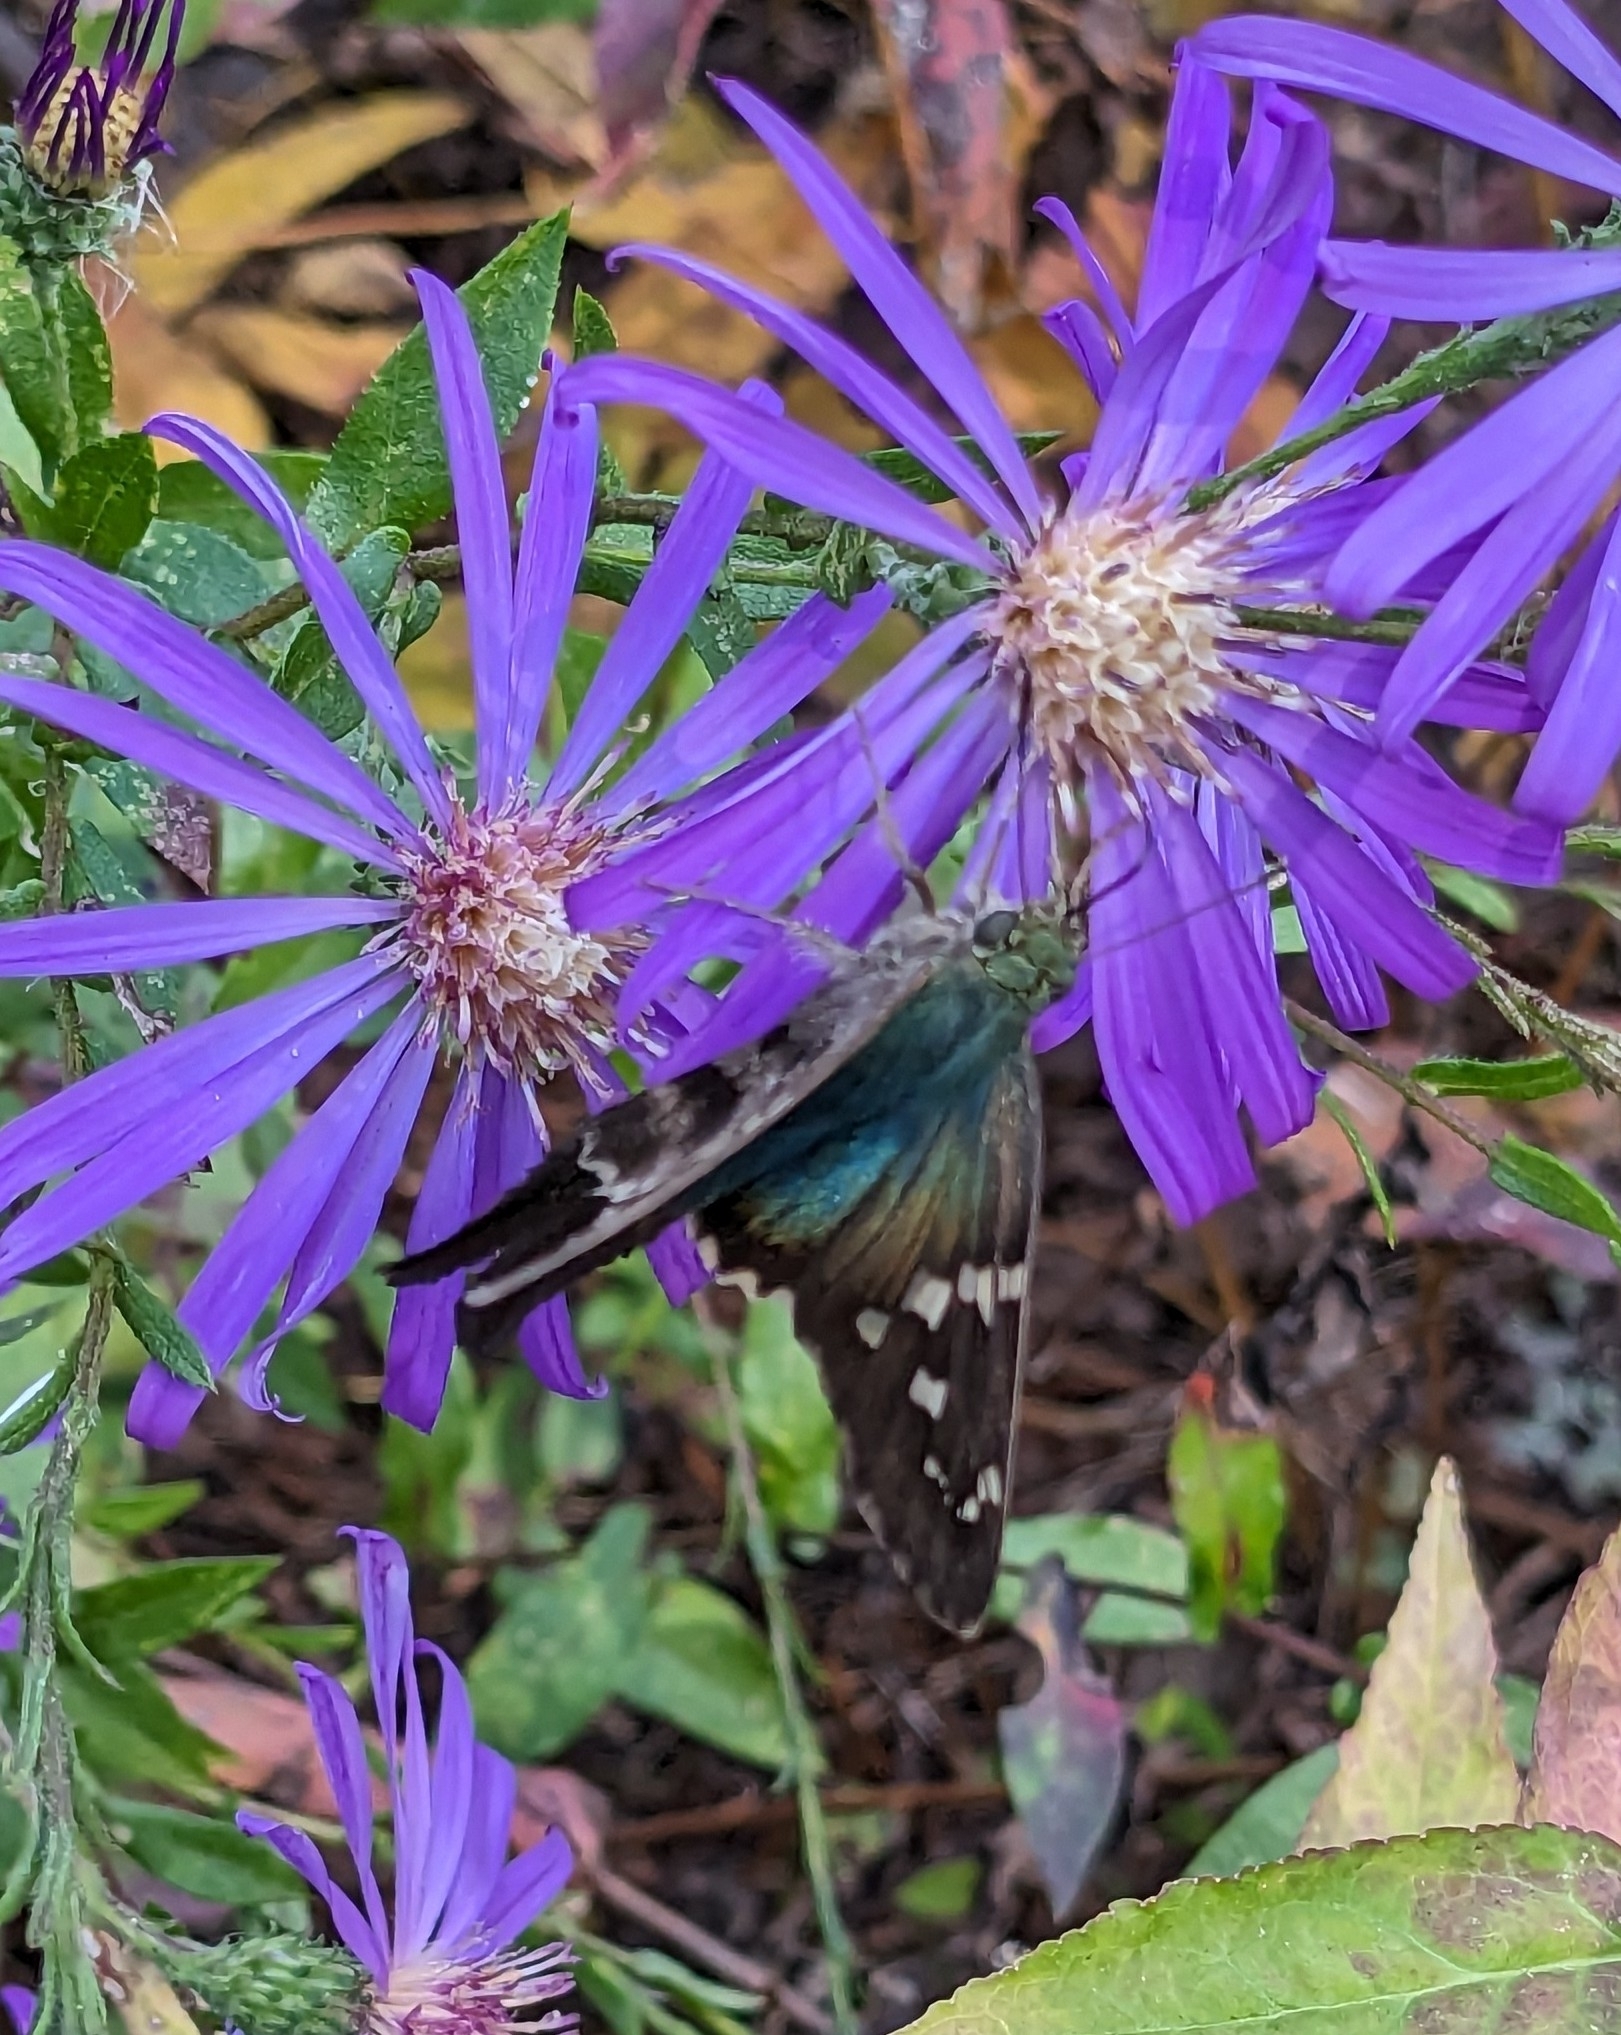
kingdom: Animalia
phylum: Arthropoda
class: Insecta
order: Lepidoptera
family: Hesperiidae
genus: Urbanus
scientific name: Urbanus proteus
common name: Long-tailed skipper
